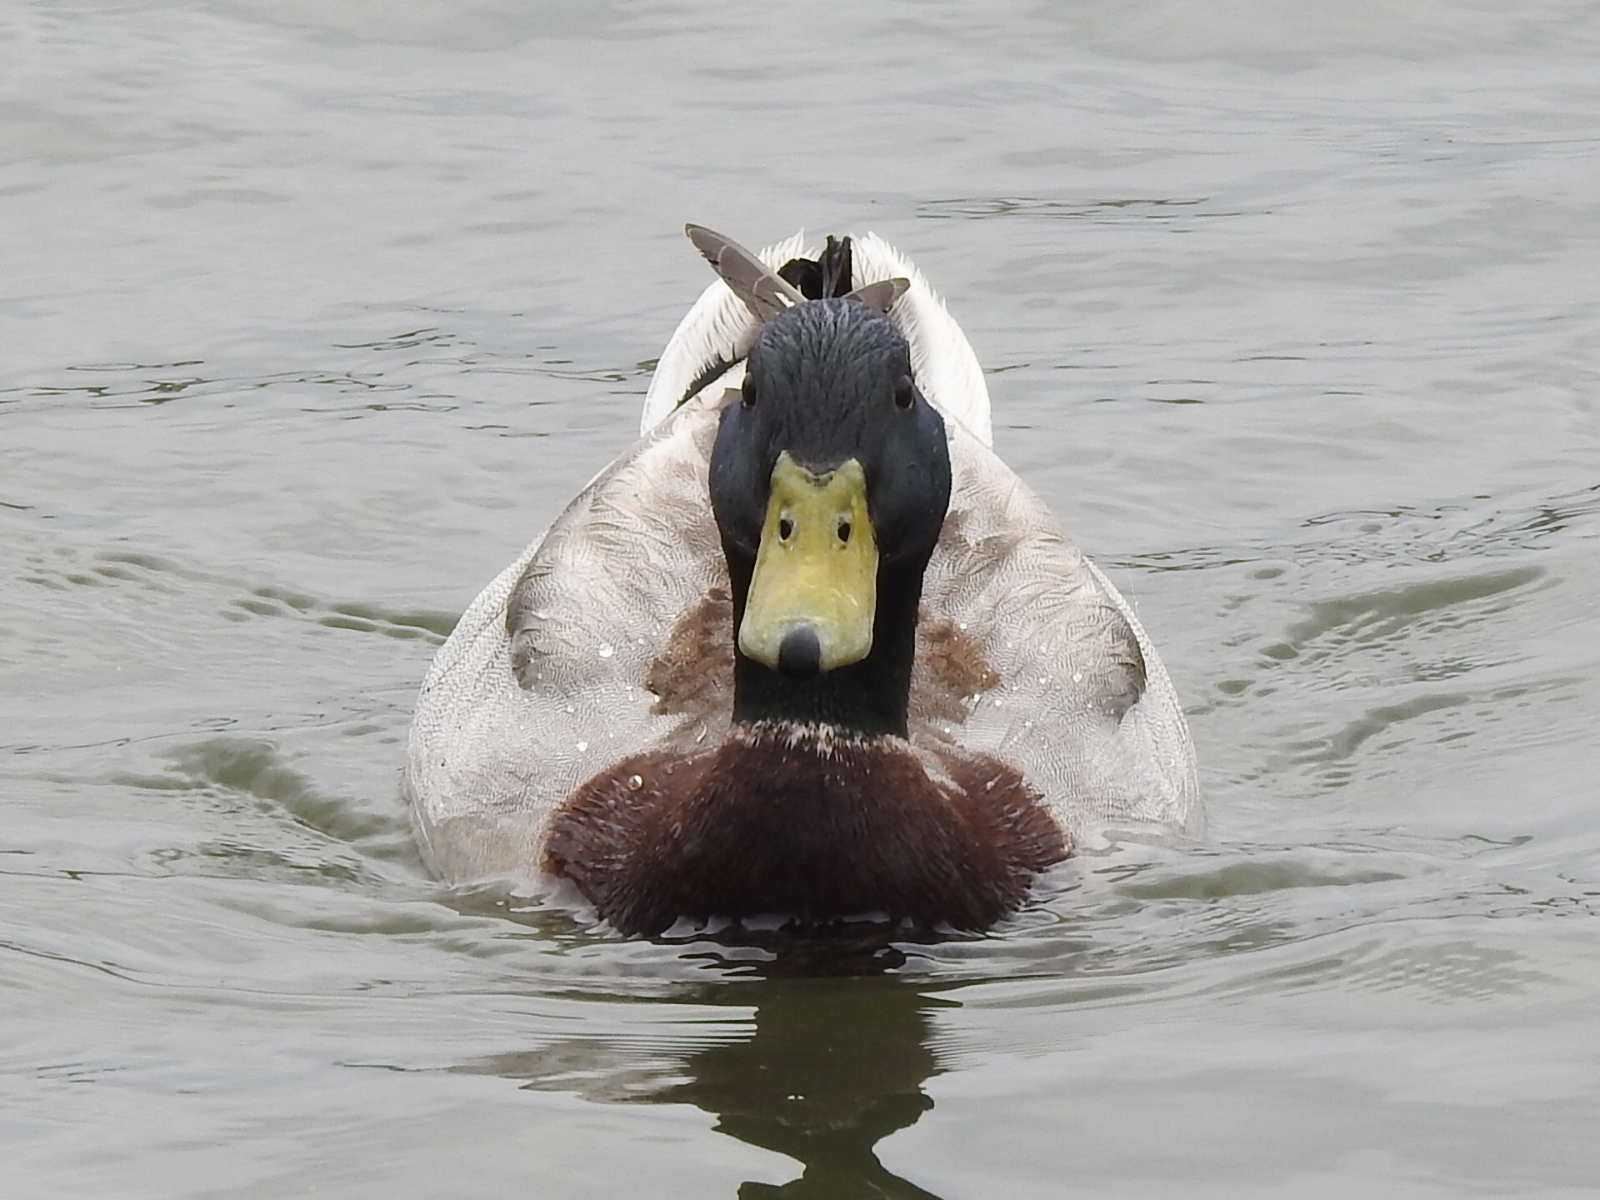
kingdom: Animalia
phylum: Chordata
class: Aves
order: Anseriformes
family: Anatidae
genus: Anas
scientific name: Anas platyrhynchos
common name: Mallard
